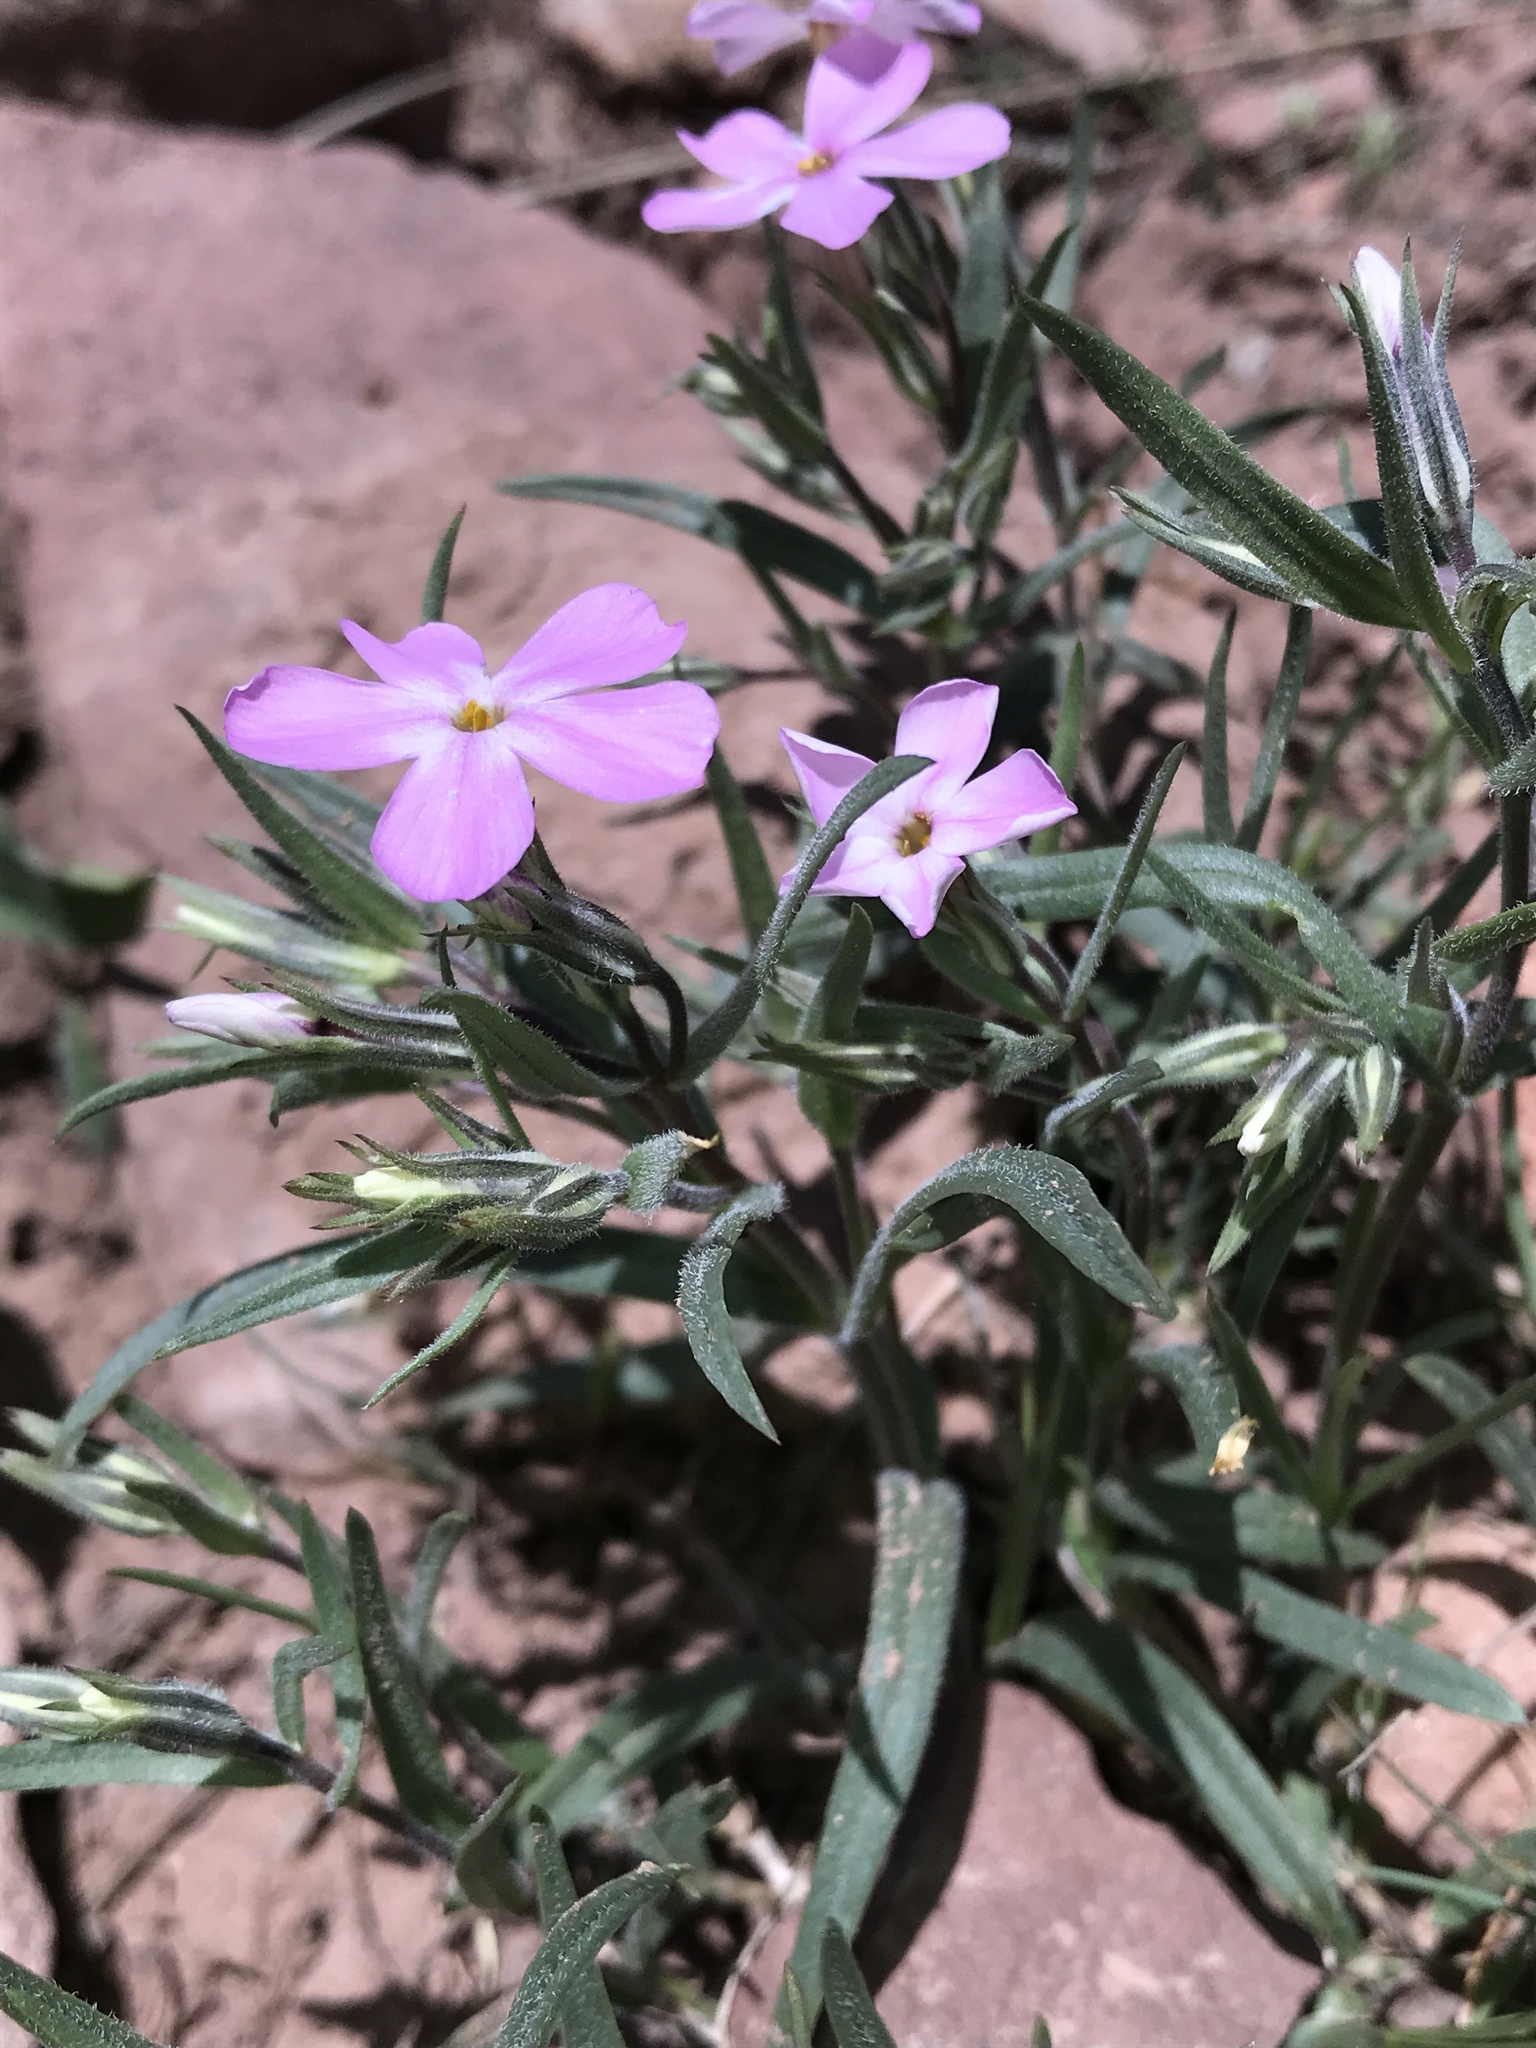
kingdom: Plantae
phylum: Tracheophyta
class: Magnoliopsida
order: Ericales
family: Polemoniaceae
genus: Phlox
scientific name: Phlox longifolia
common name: Longleaf phlox
